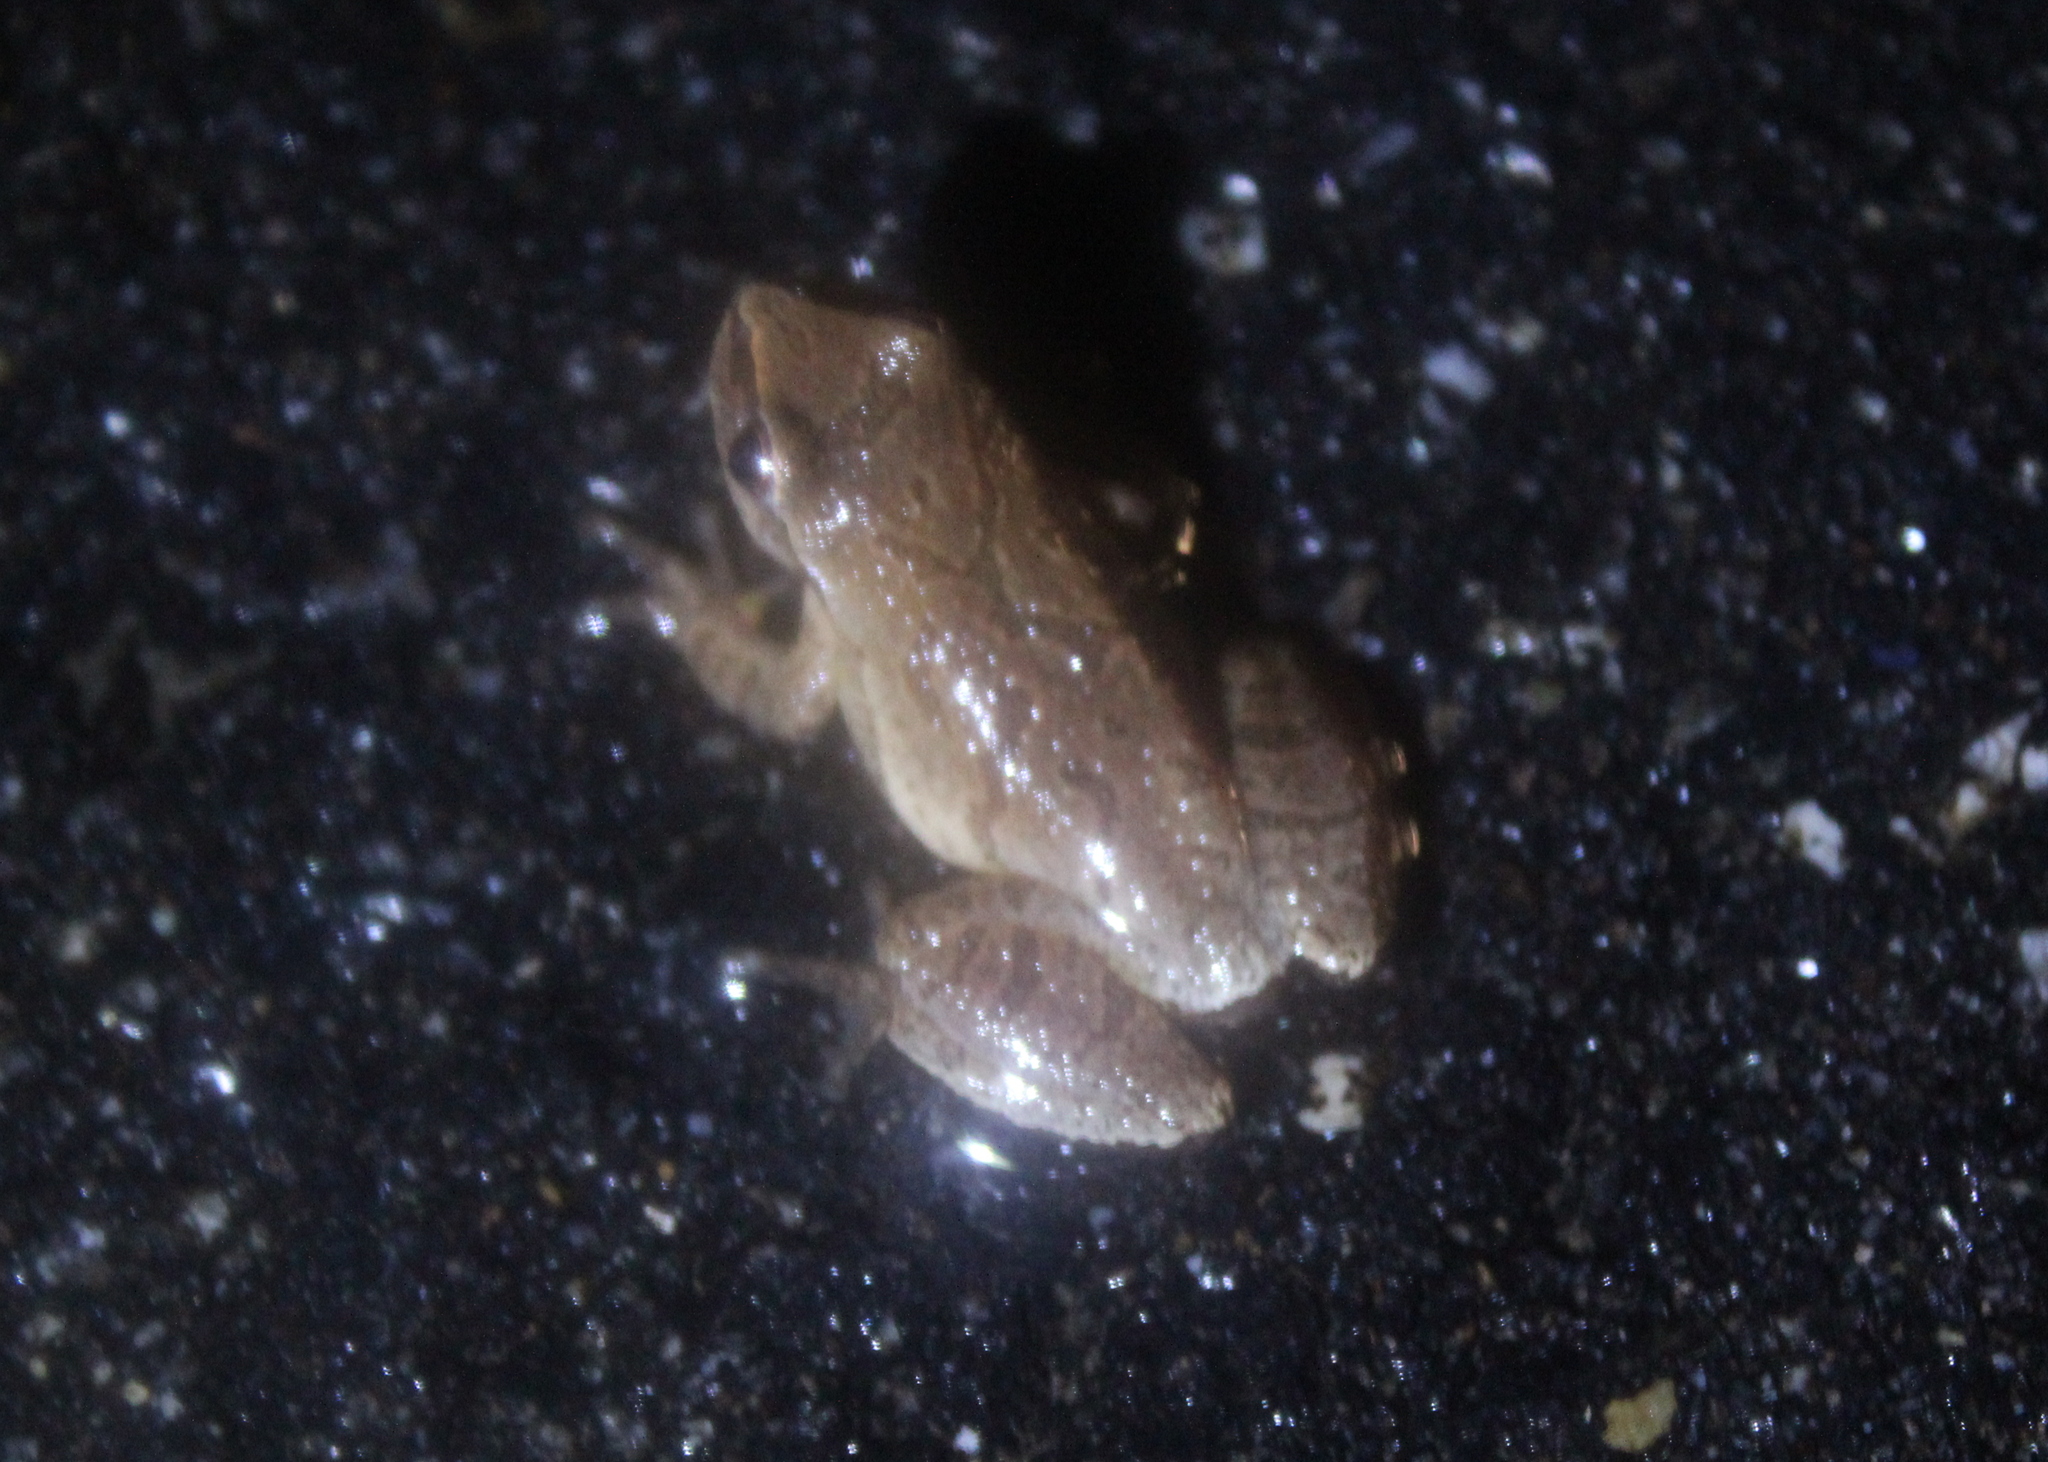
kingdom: Animalia
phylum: Chordata
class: Amphibia
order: Anura
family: Hylidae
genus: Pseudacris
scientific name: Pseudacris crucifer
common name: Spring peeper
